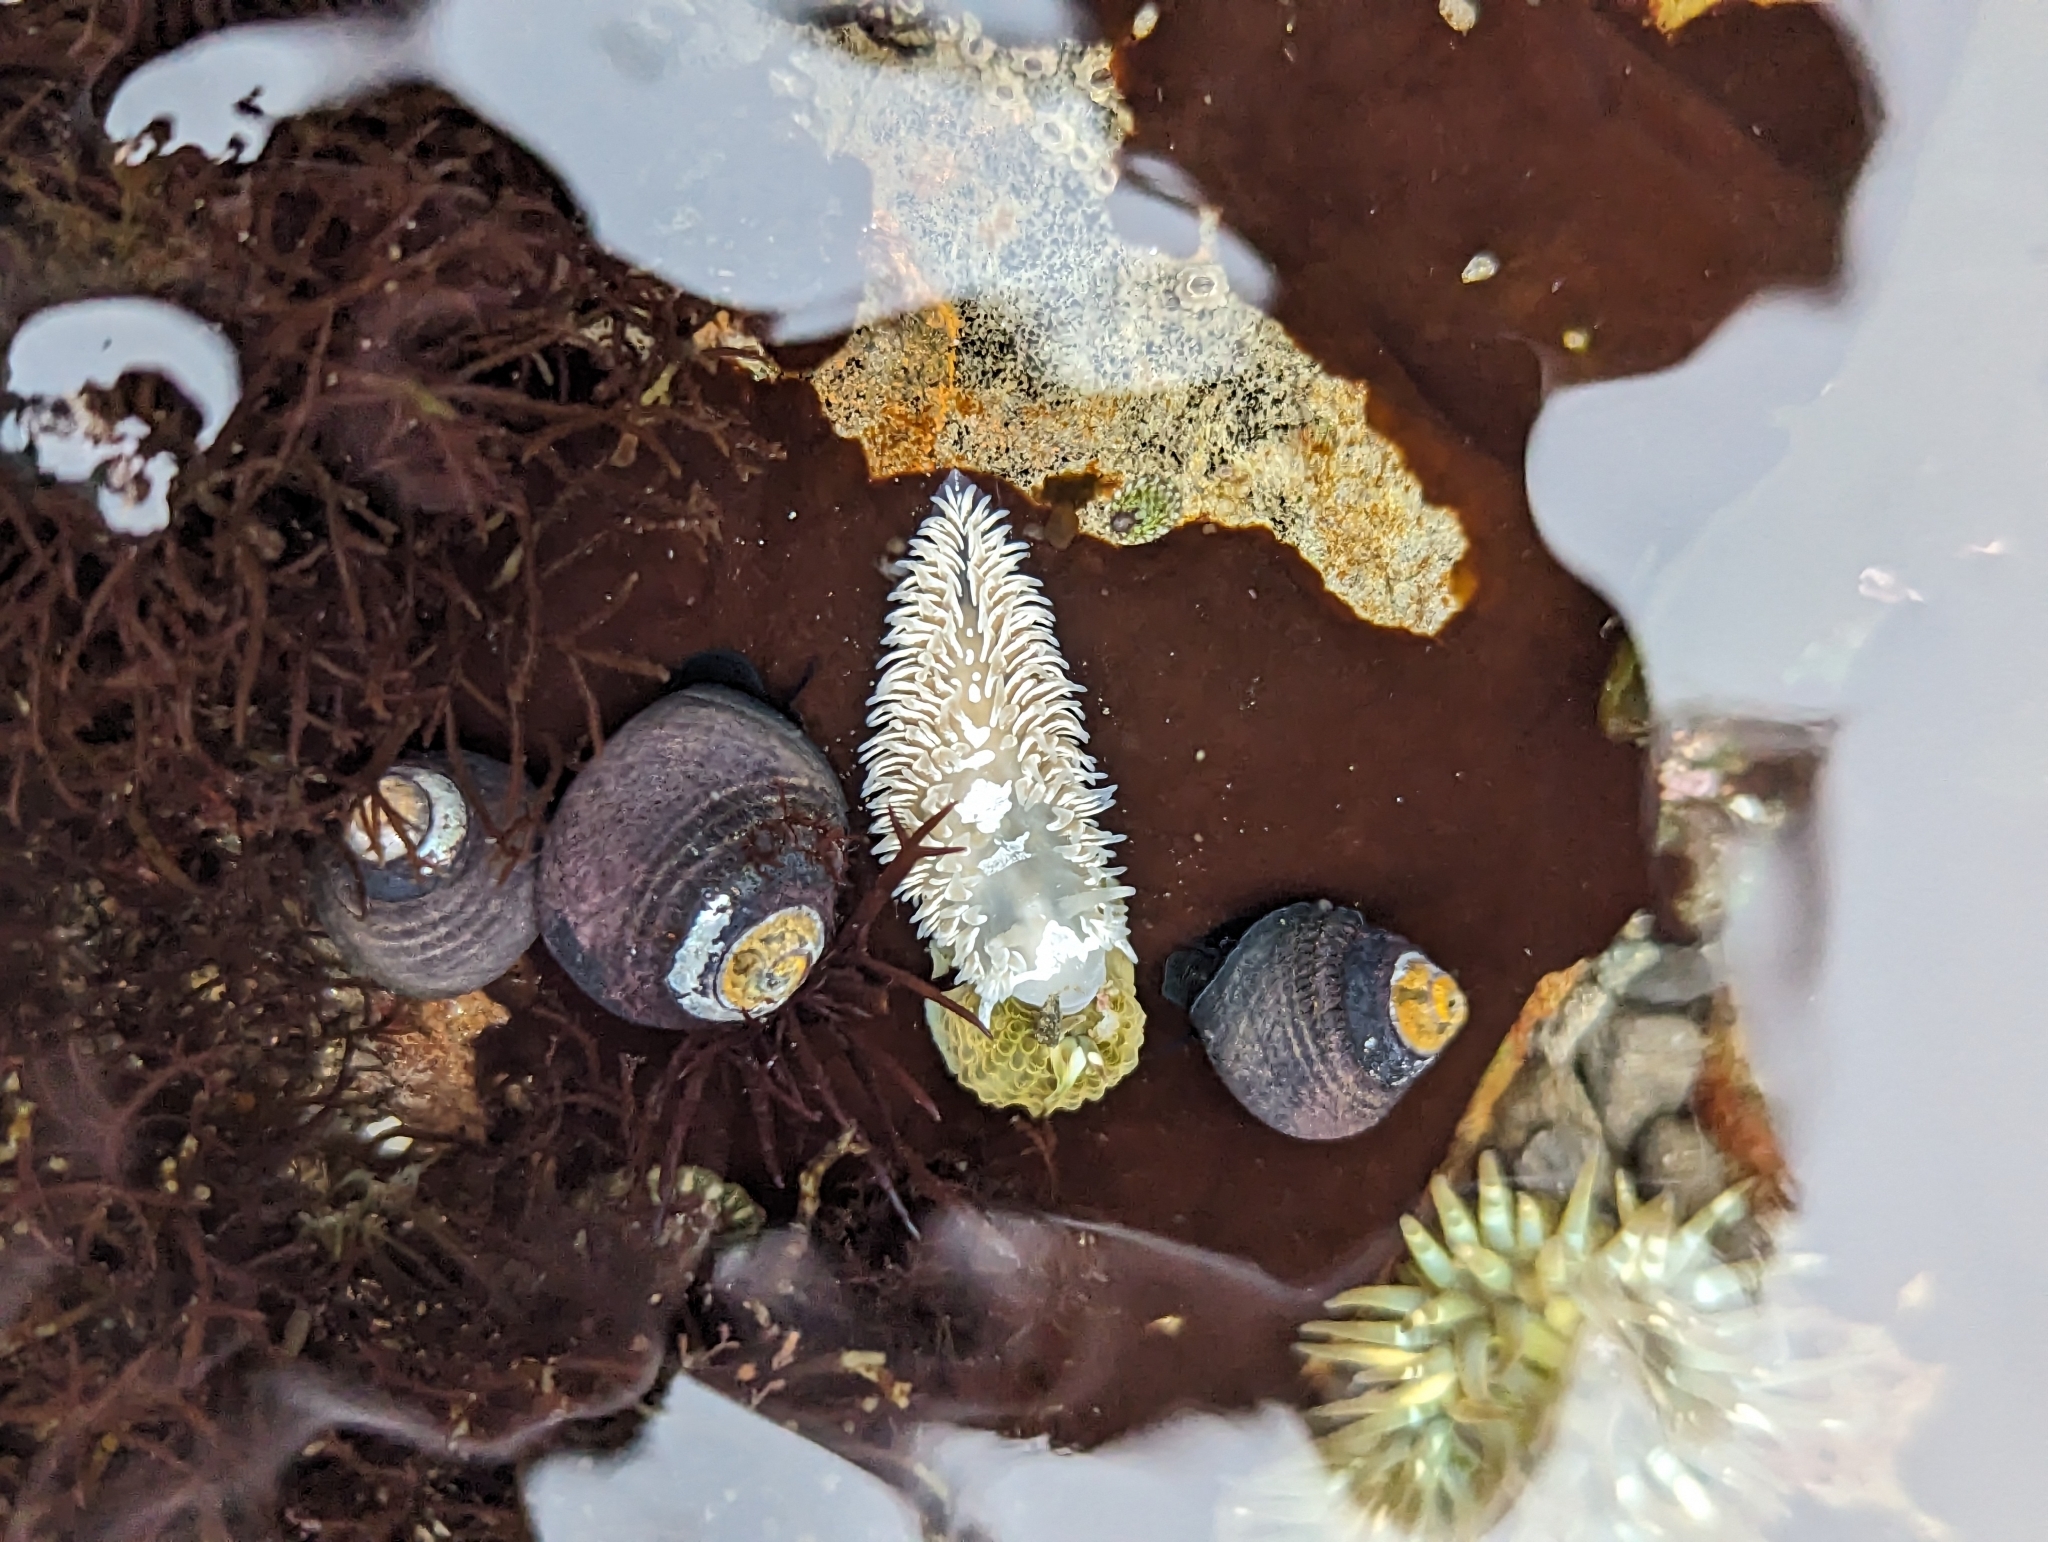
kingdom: Animalia
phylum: Mollusca
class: Gastropoda
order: Nudibranchia
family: Aeolidiidae
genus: Aeolidia
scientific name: Aeolidia loui
